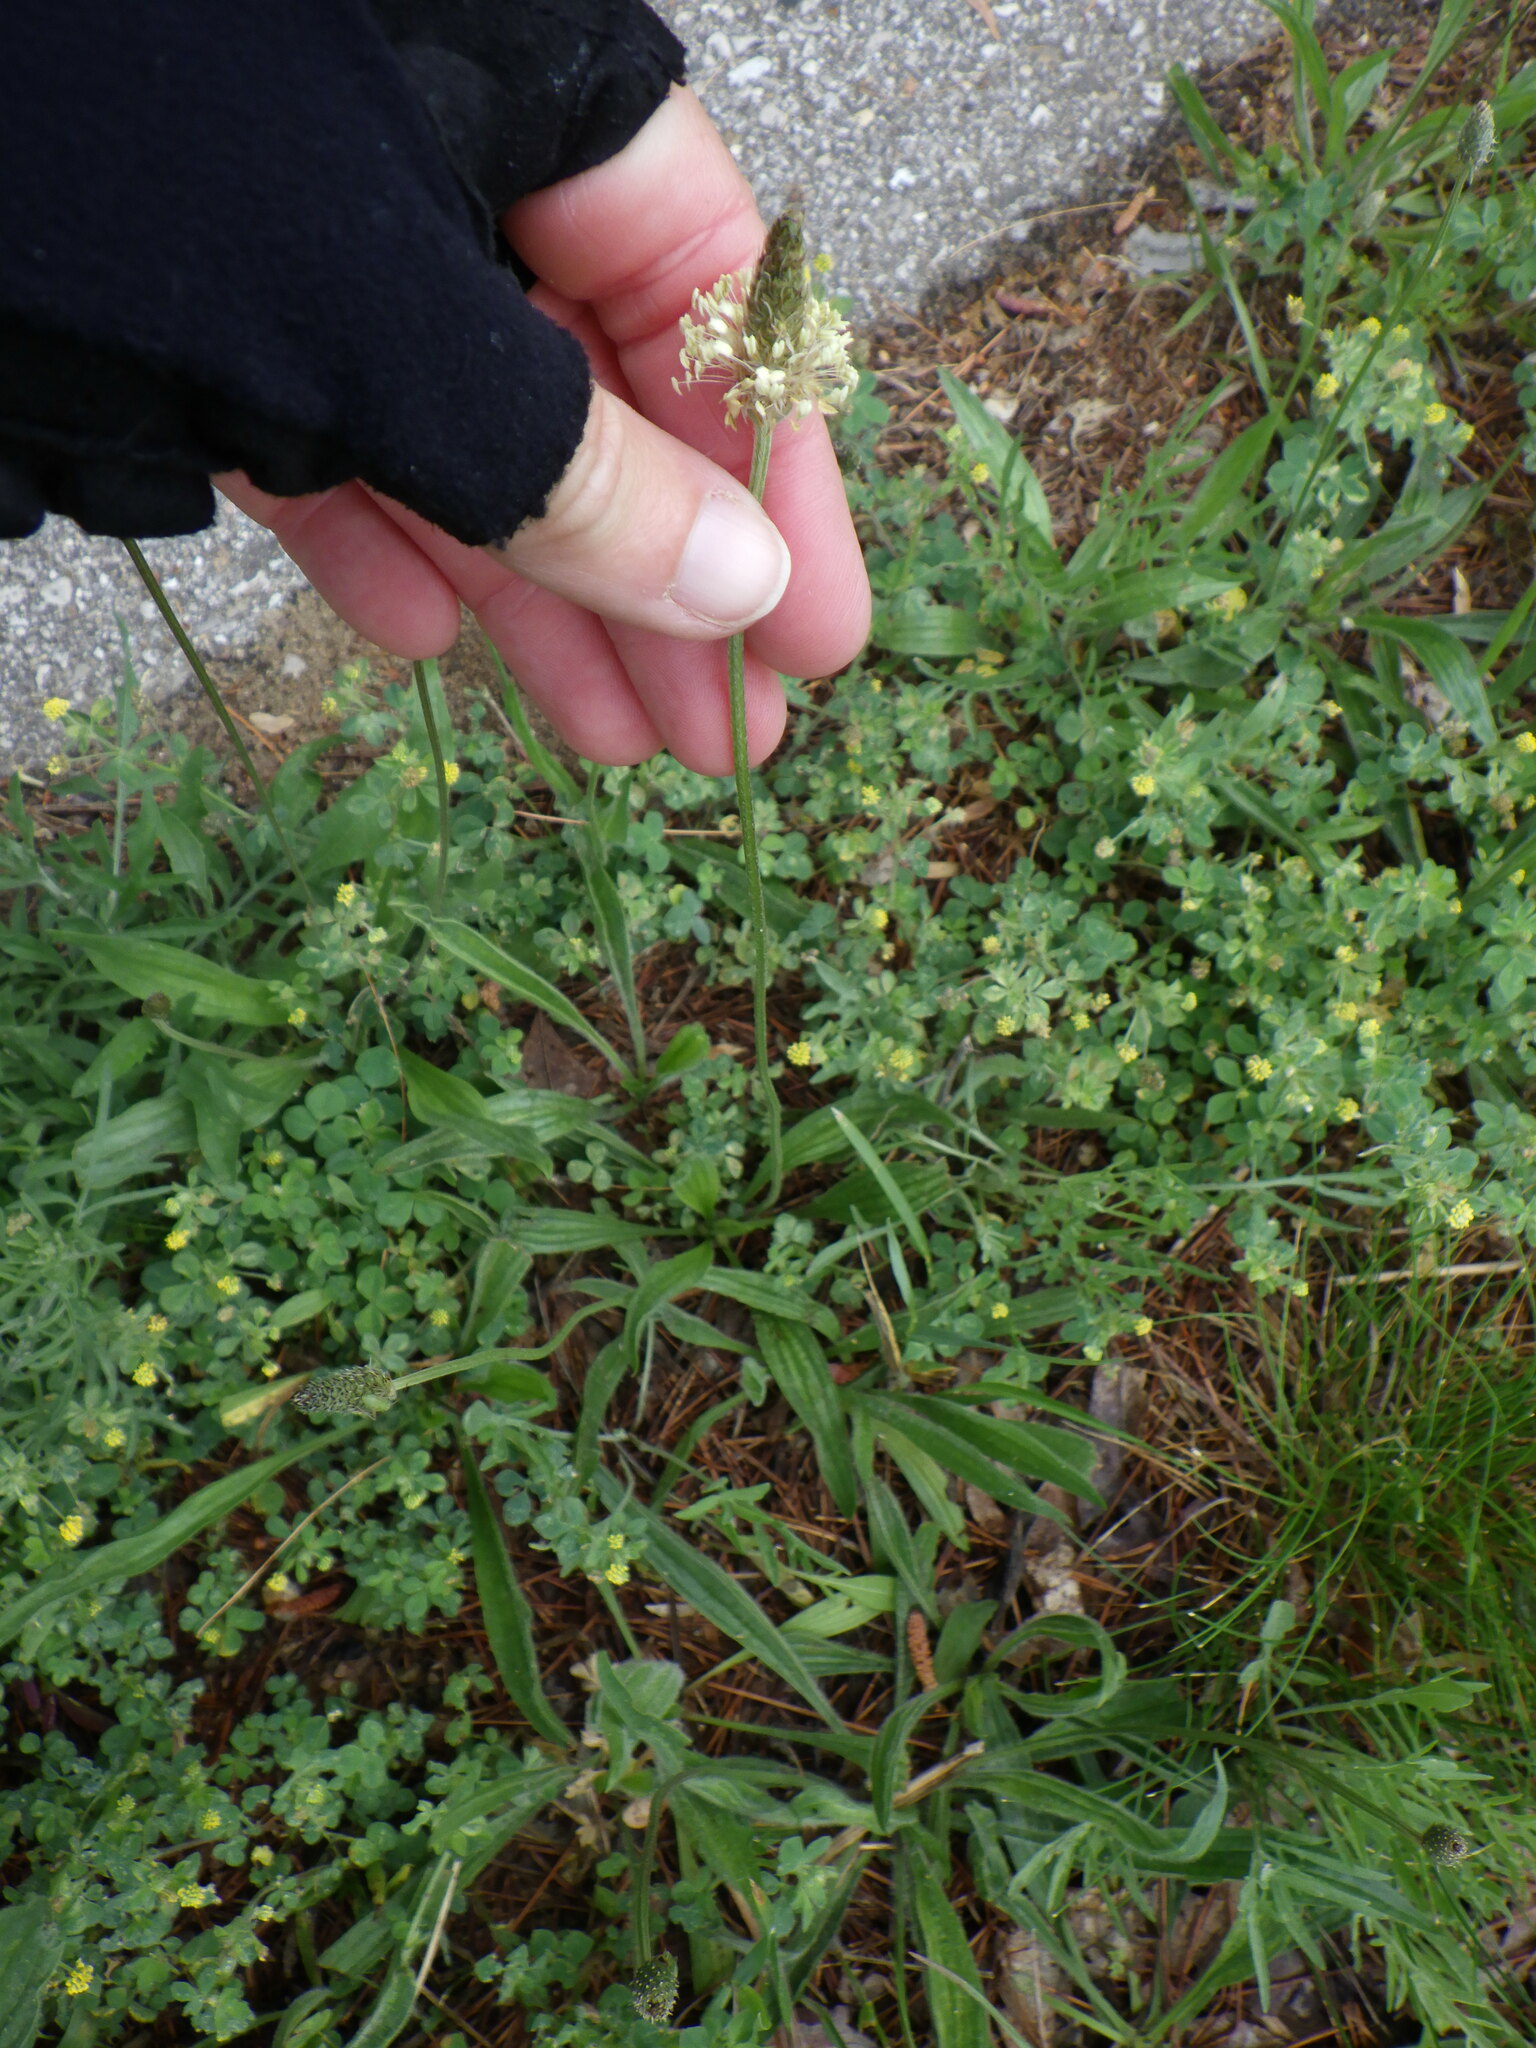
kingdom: Plantae
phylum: Tracheophyta
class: Magnoliopsida
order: Lamiales
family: Plantaginaceae
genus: Plantago
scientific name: Plantago lanceolata
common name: Ribwort plantain
